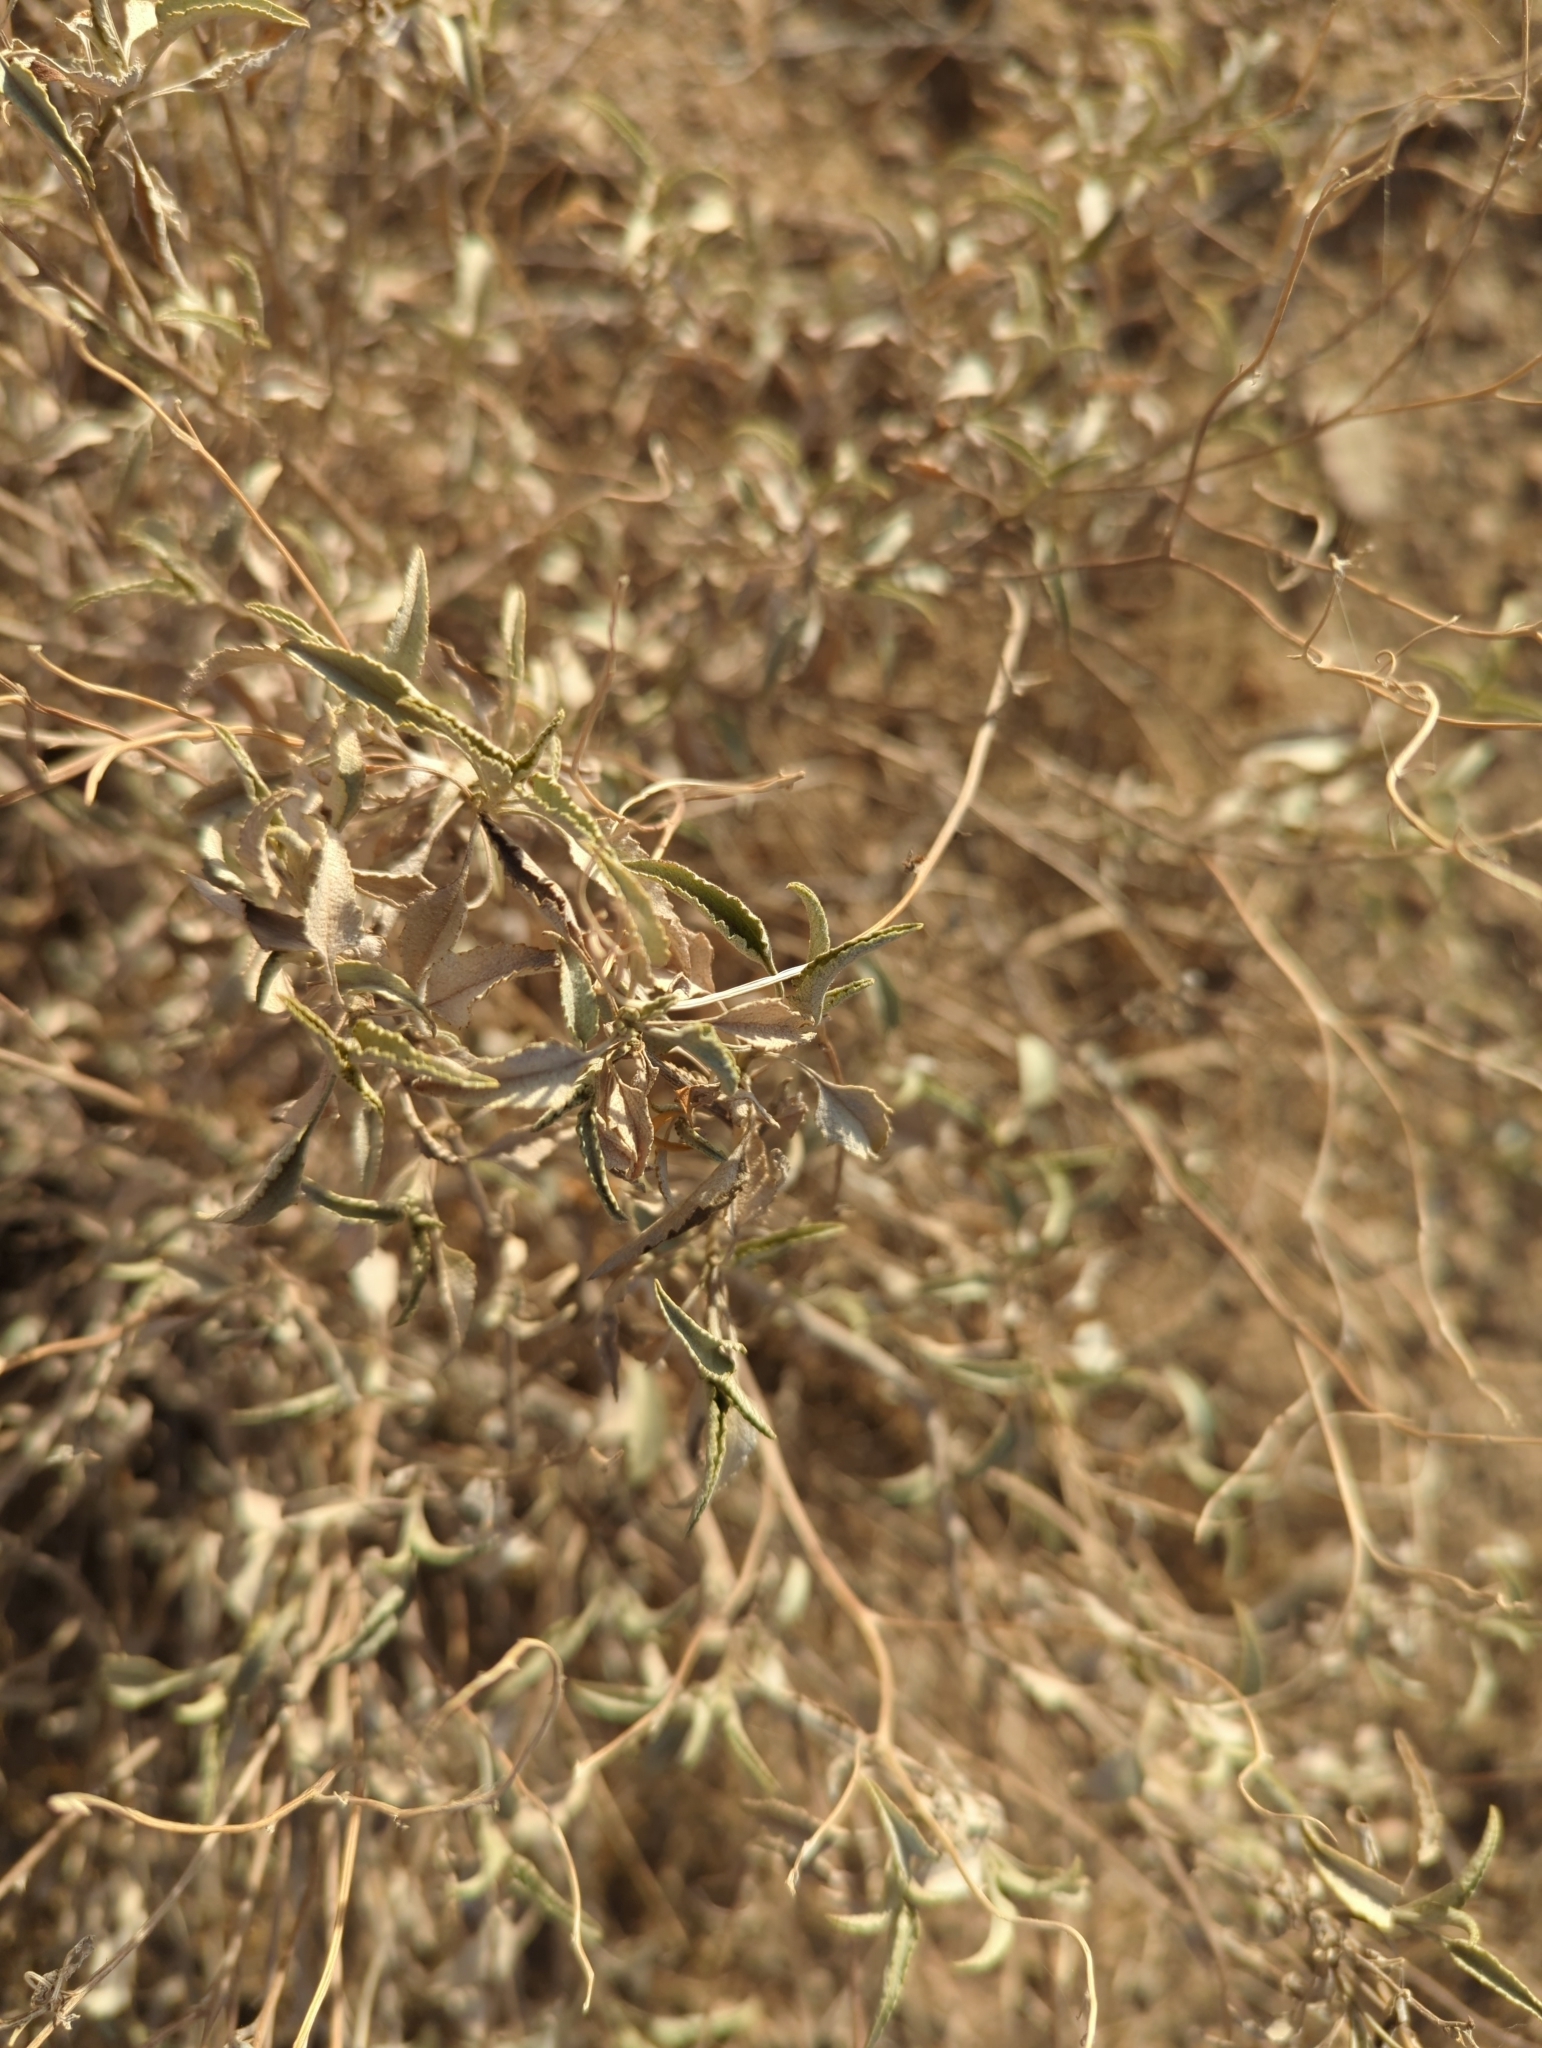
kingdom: Plantae
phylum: Tracheophyta
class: Magnoliopsida
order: Asterales
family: Asteraceae
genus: Ambrosia
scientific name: Ambrosia deltoidea
